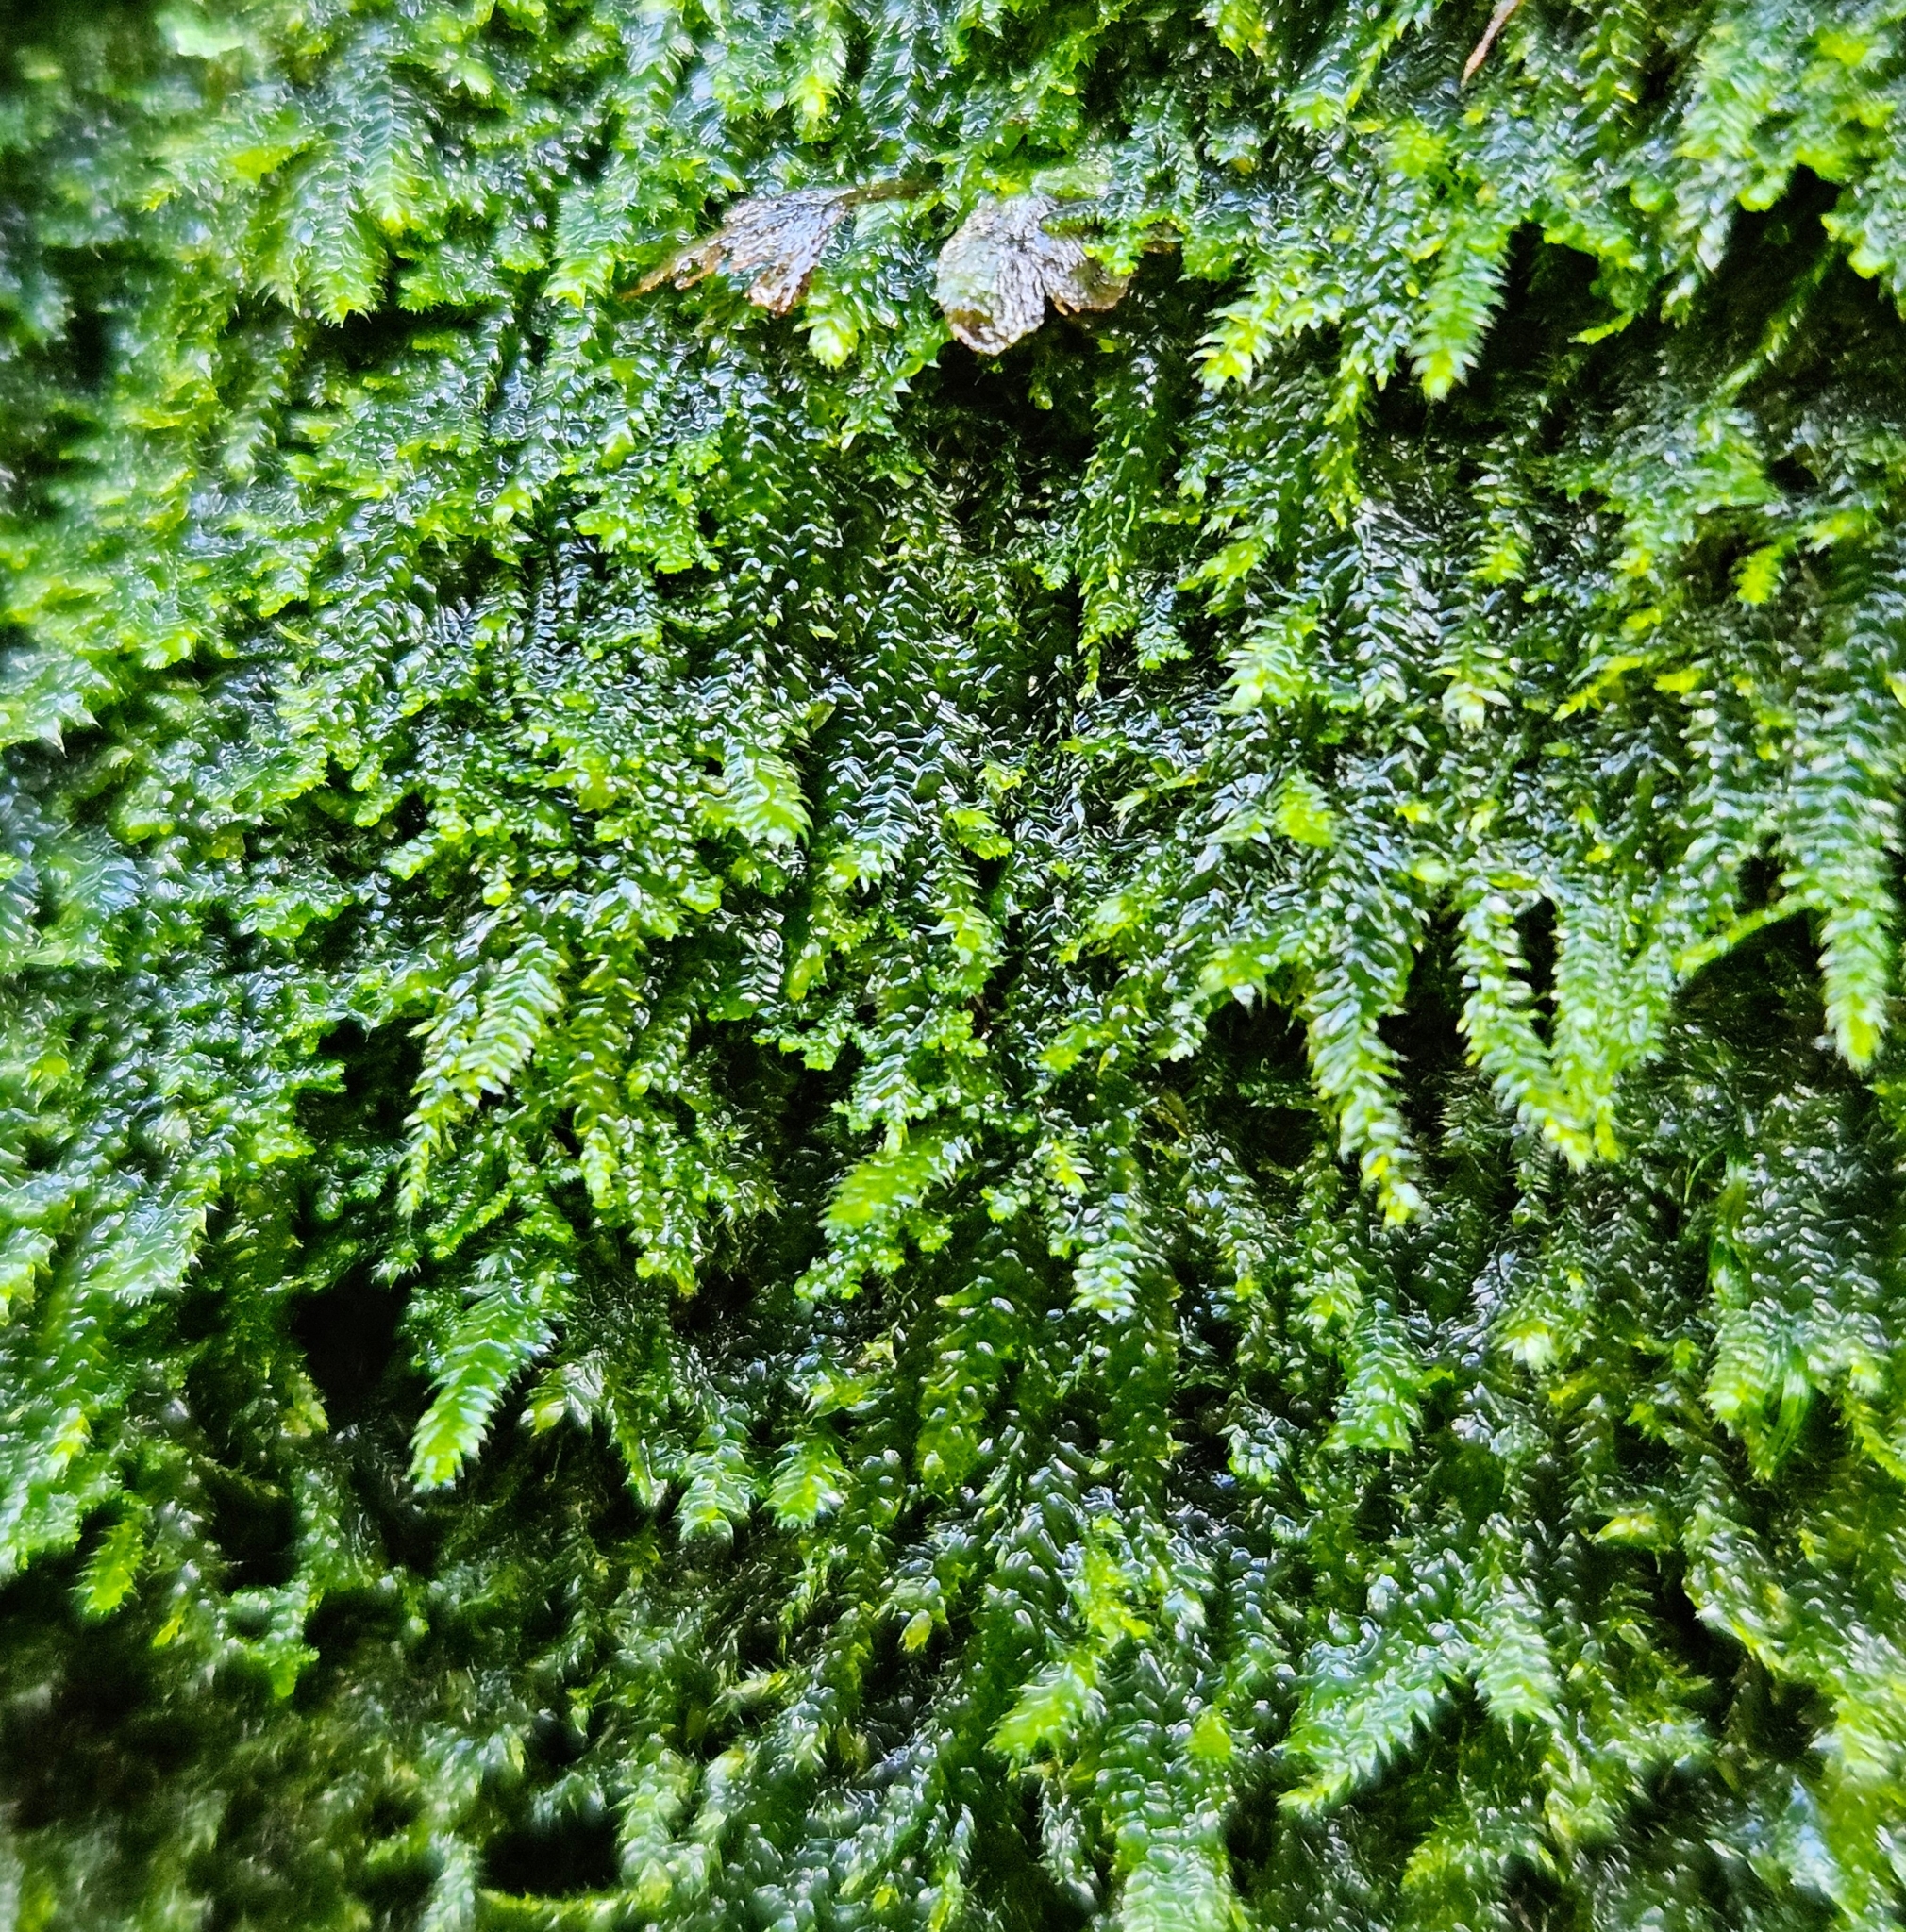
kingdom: Plantae
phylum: Bryophyta
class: Bryopsida
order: Hypnales
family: Plagiotheciaceae
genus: Pseudotaxiphyllum
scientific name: Pseudotaxiphyllum elegans
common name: Elegant silk moss
